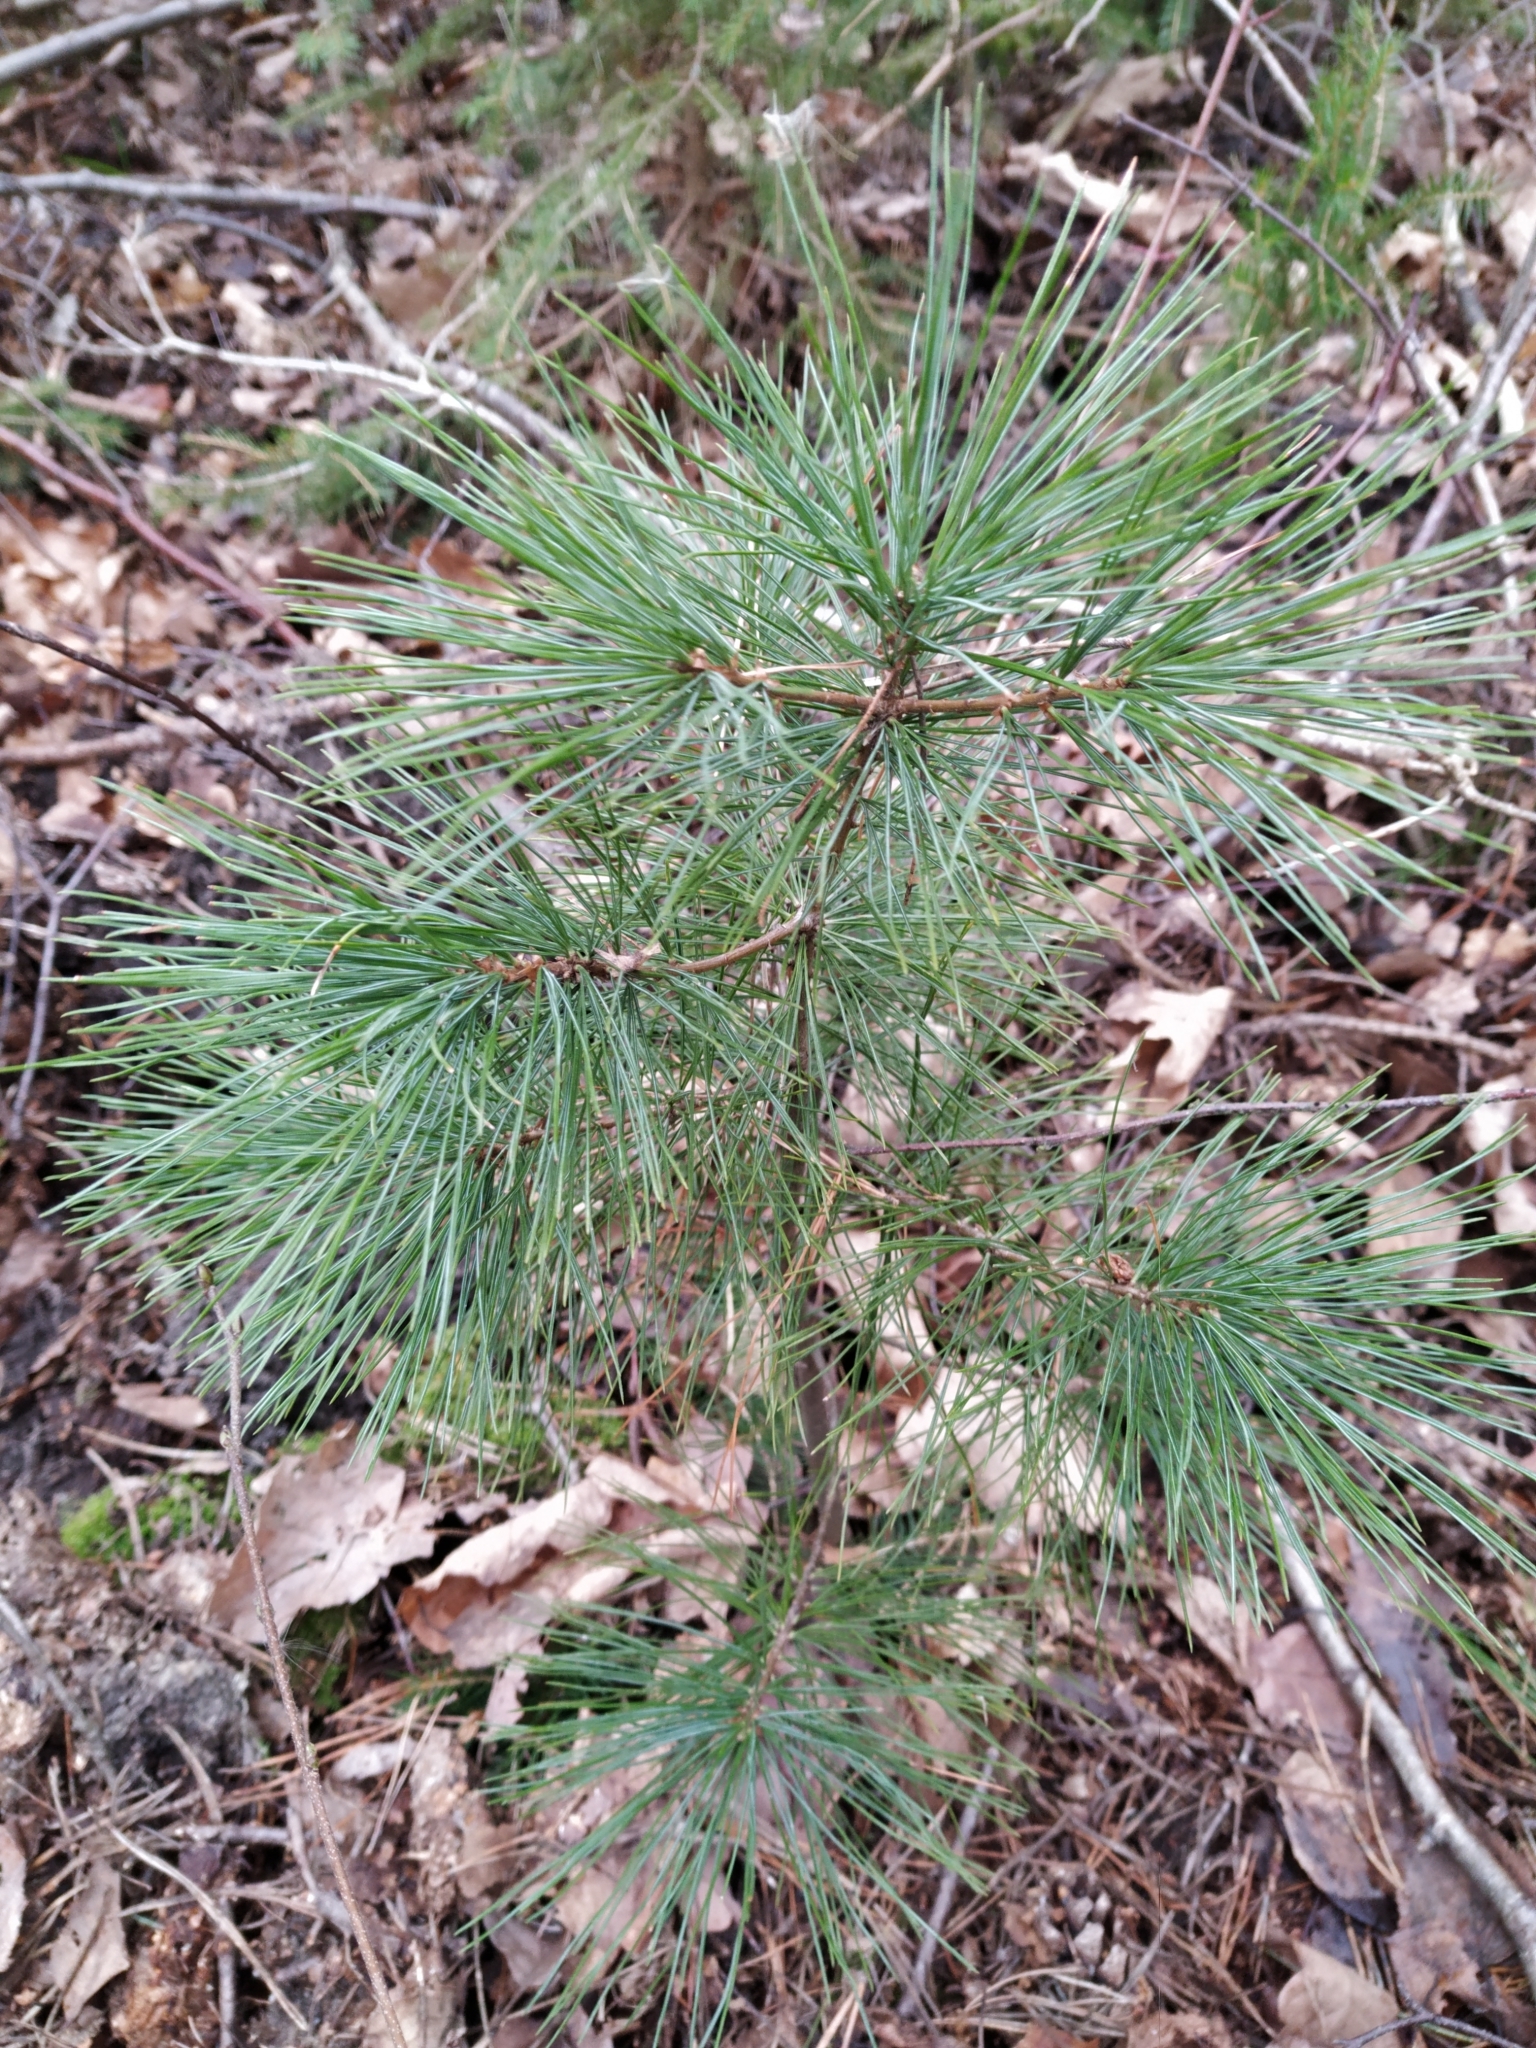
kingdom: Plantae
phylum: Tracheophyta
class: Pinopsida
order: Pinales
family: Pinaceae
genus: Pinus
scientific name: Pinus strobus
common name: Weymouth pine
